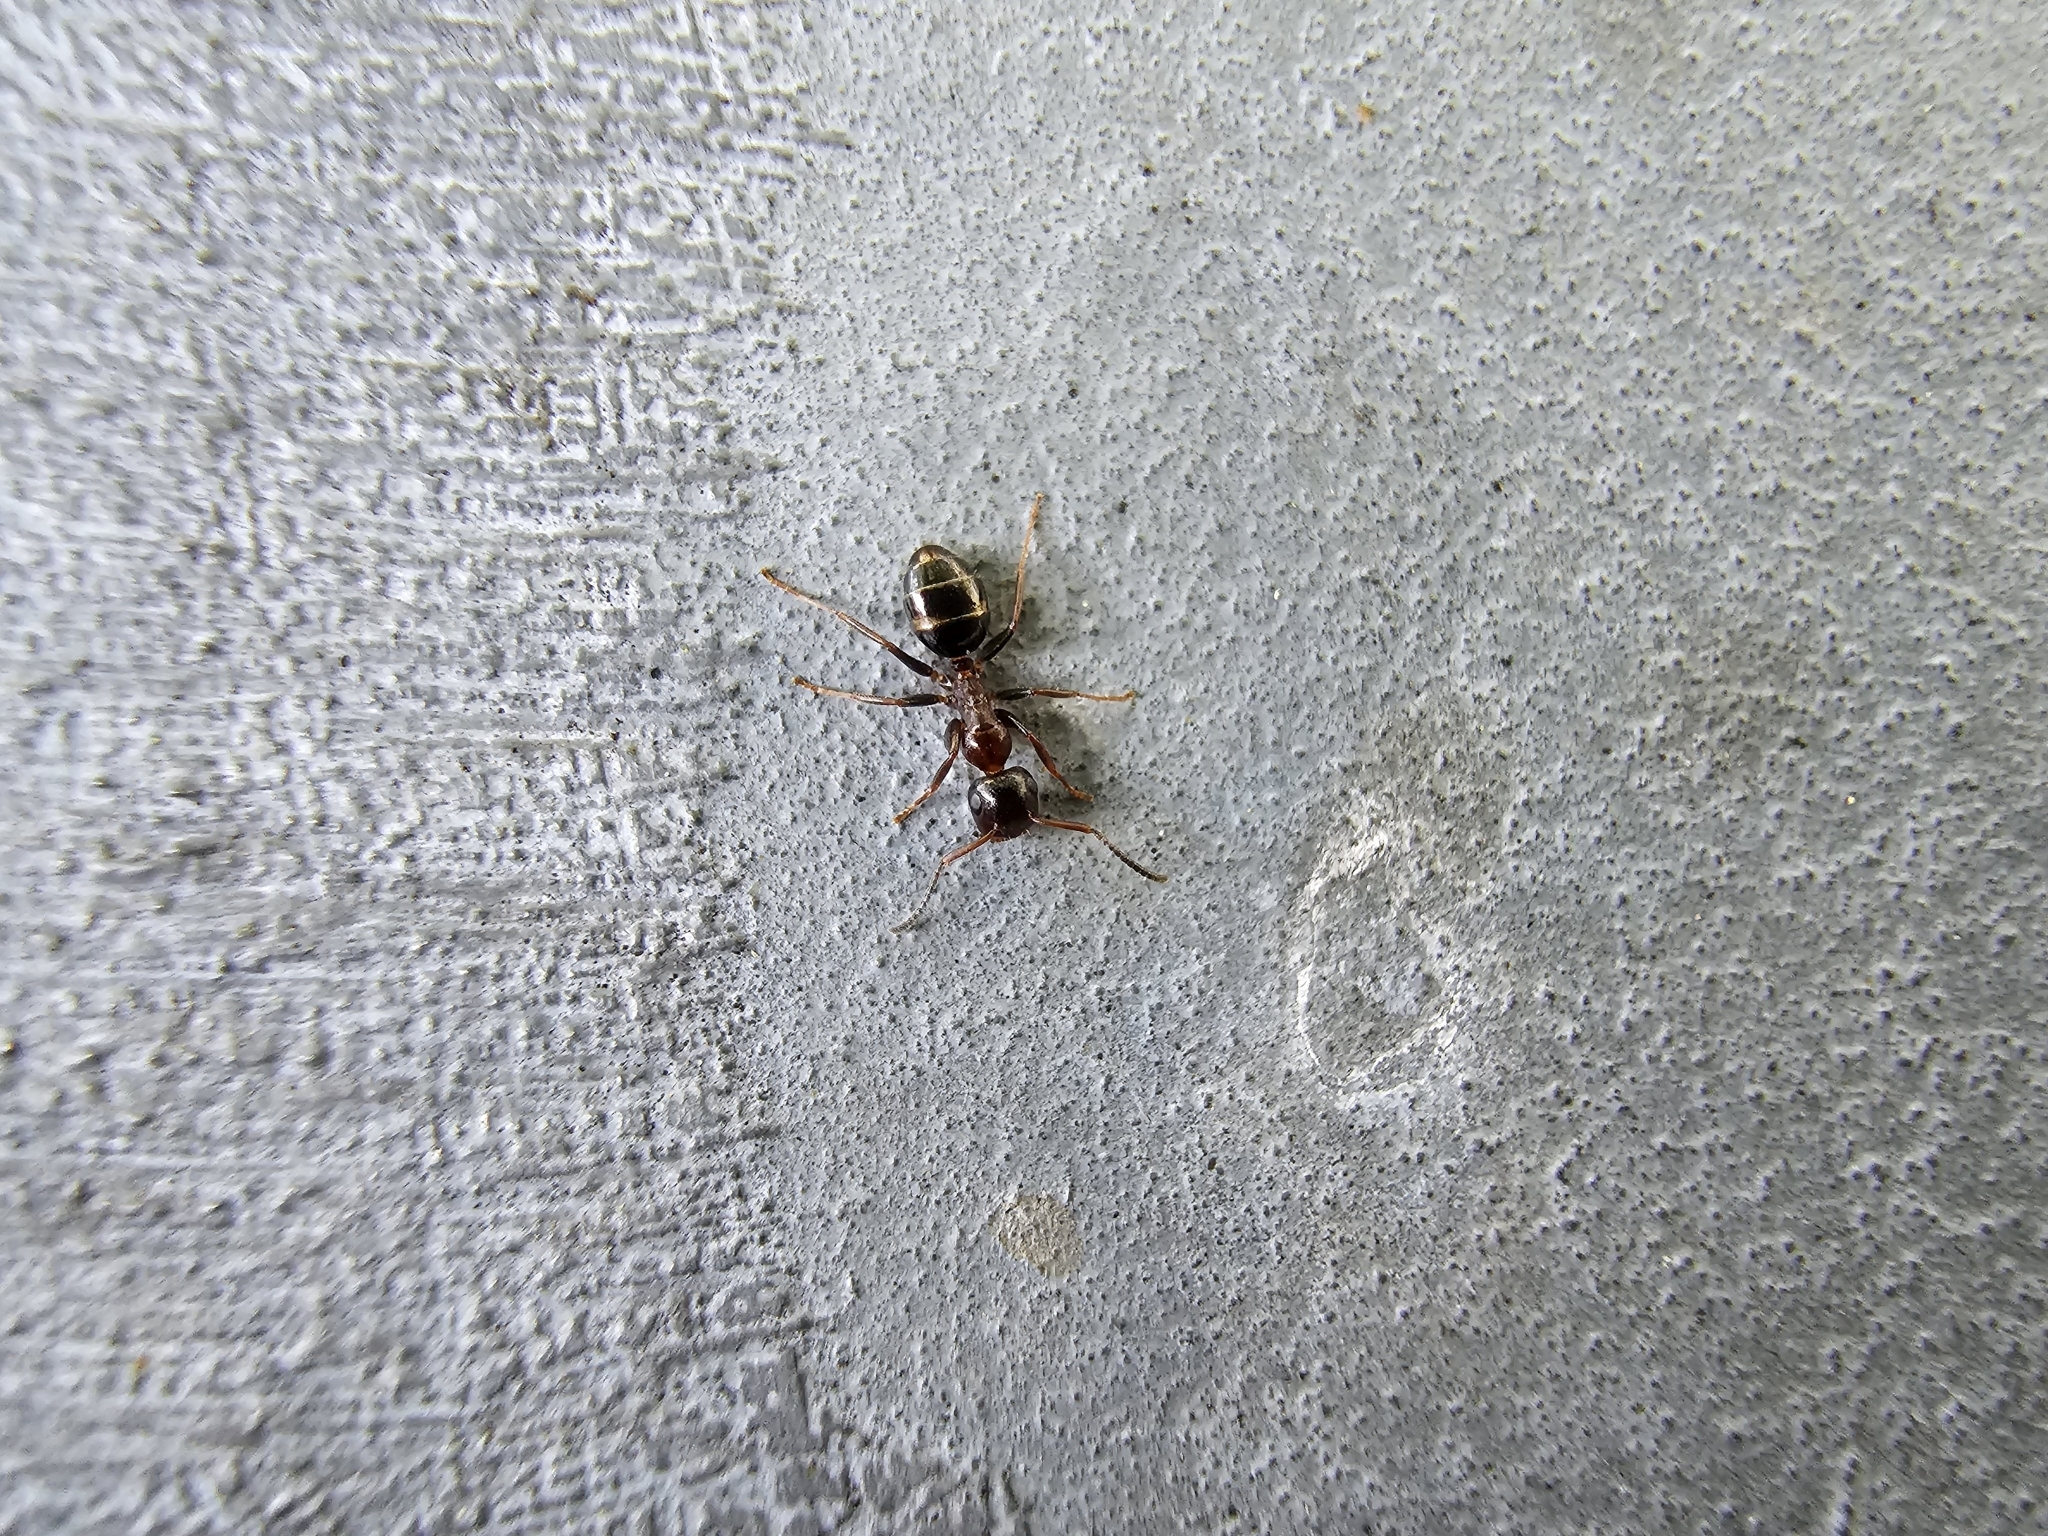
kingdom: Animalia
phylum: Arthropoda
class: Insecta
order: Hymenoptera
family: Formicidae
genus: Camponotus
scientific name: Camponotus truncatus
